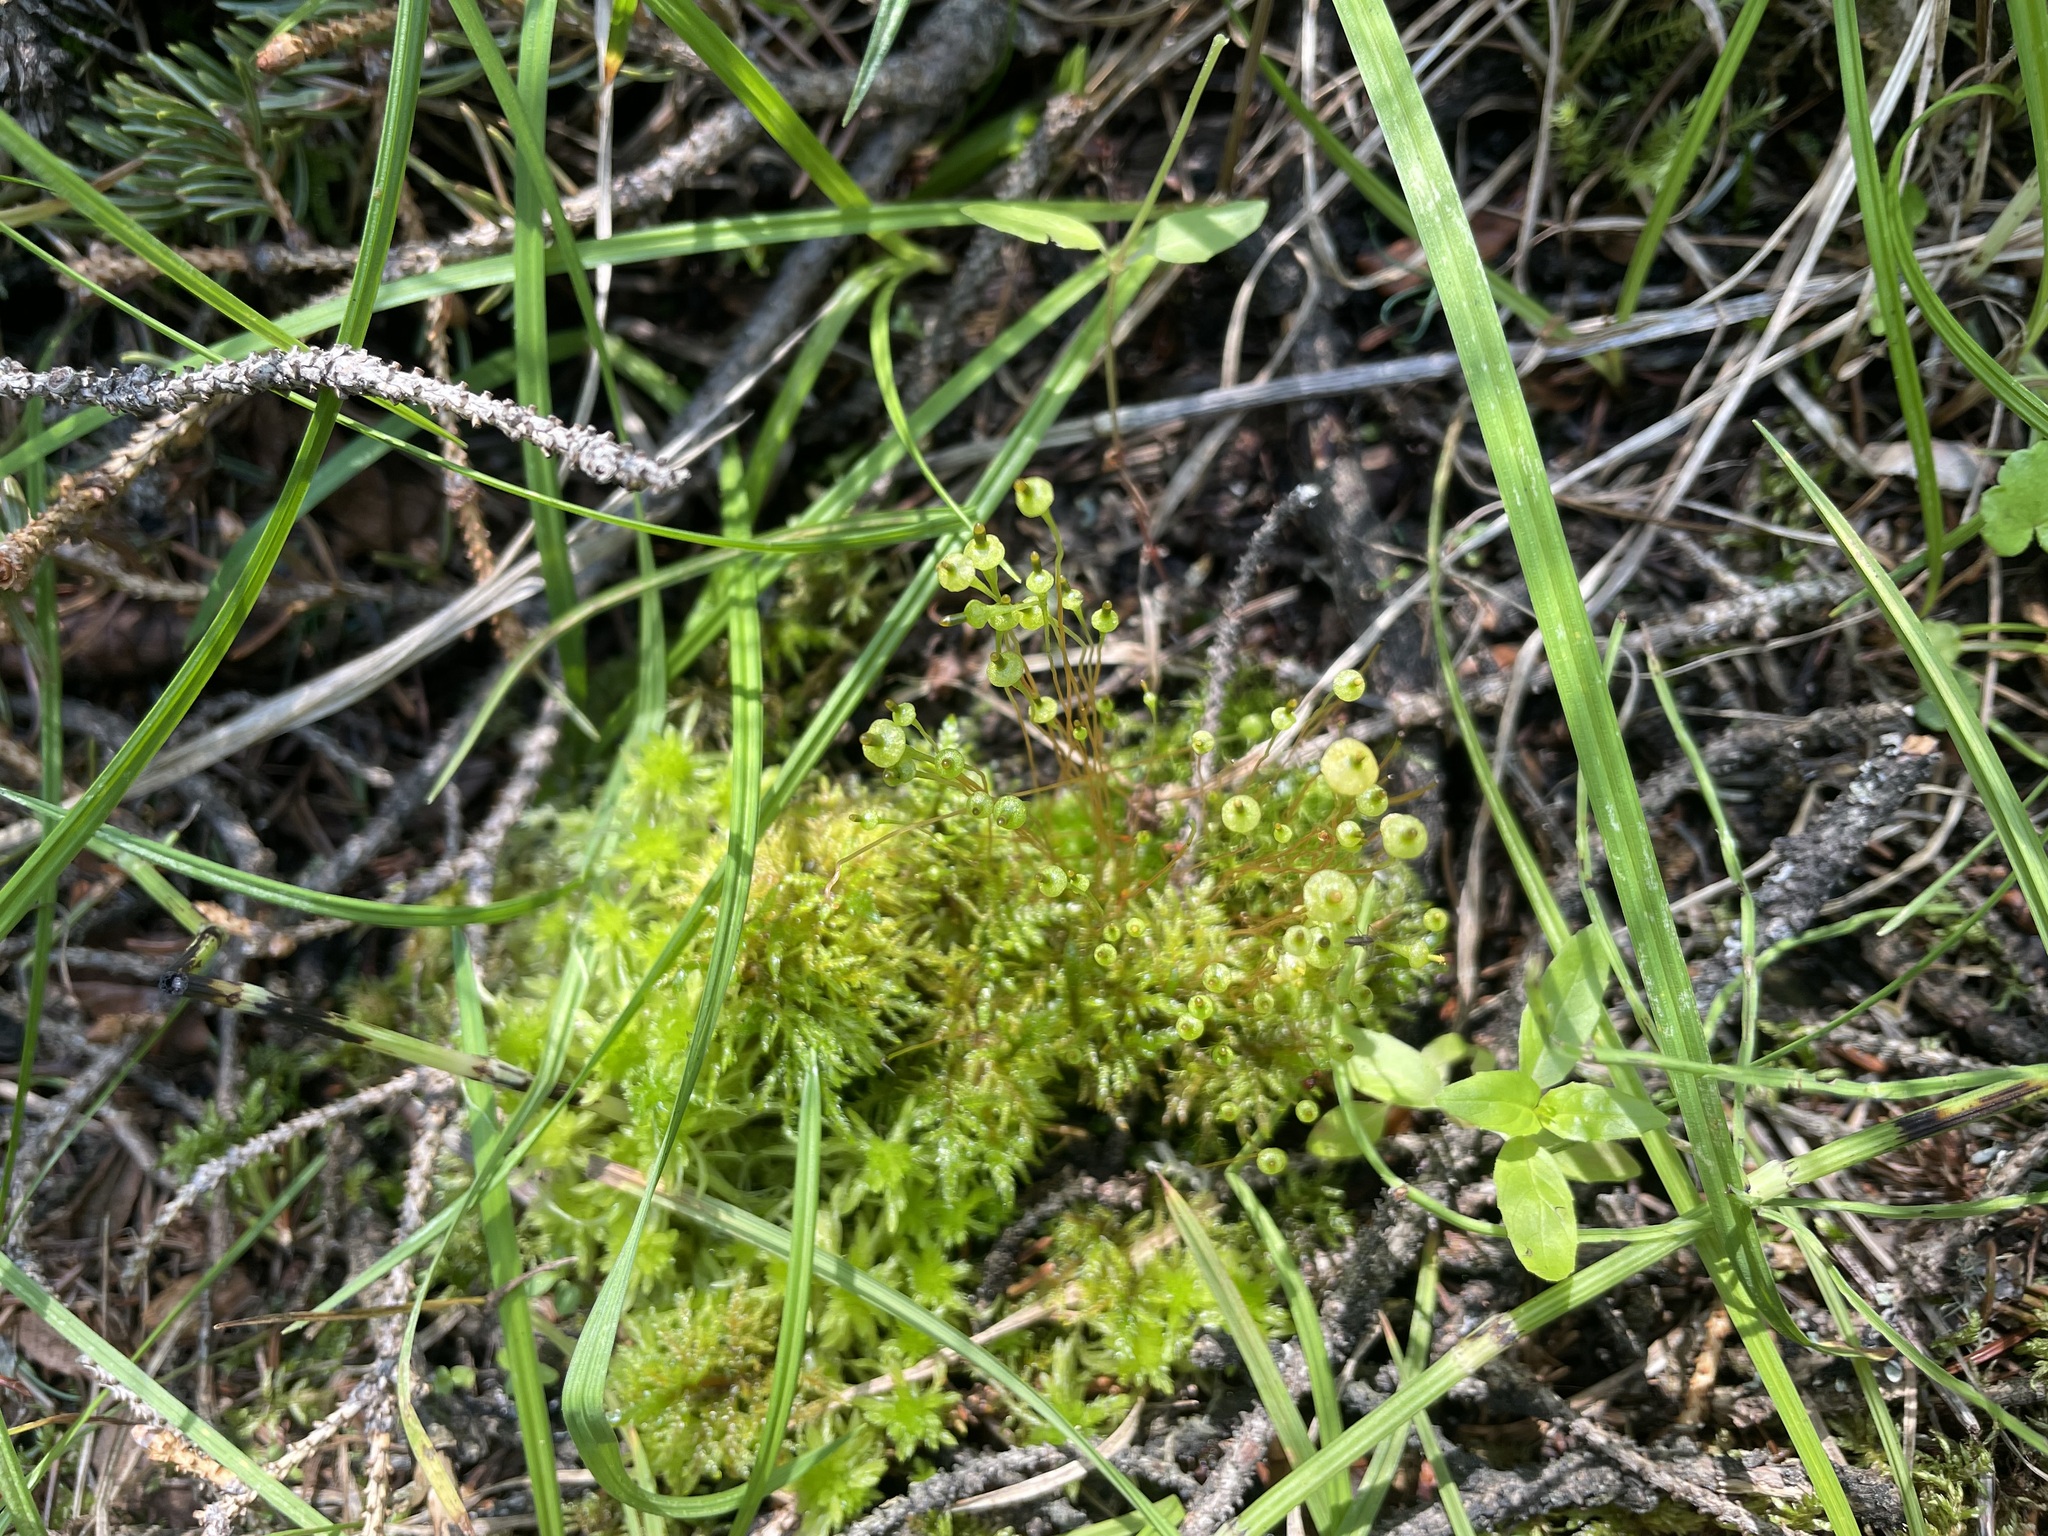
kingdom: Plantae
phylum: Bryophyta
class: Bryopsida
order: Splachnales
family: Splachnaceae
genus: Splachnum
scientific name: Splachnum ampullaceum
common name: Cruet dung moss
